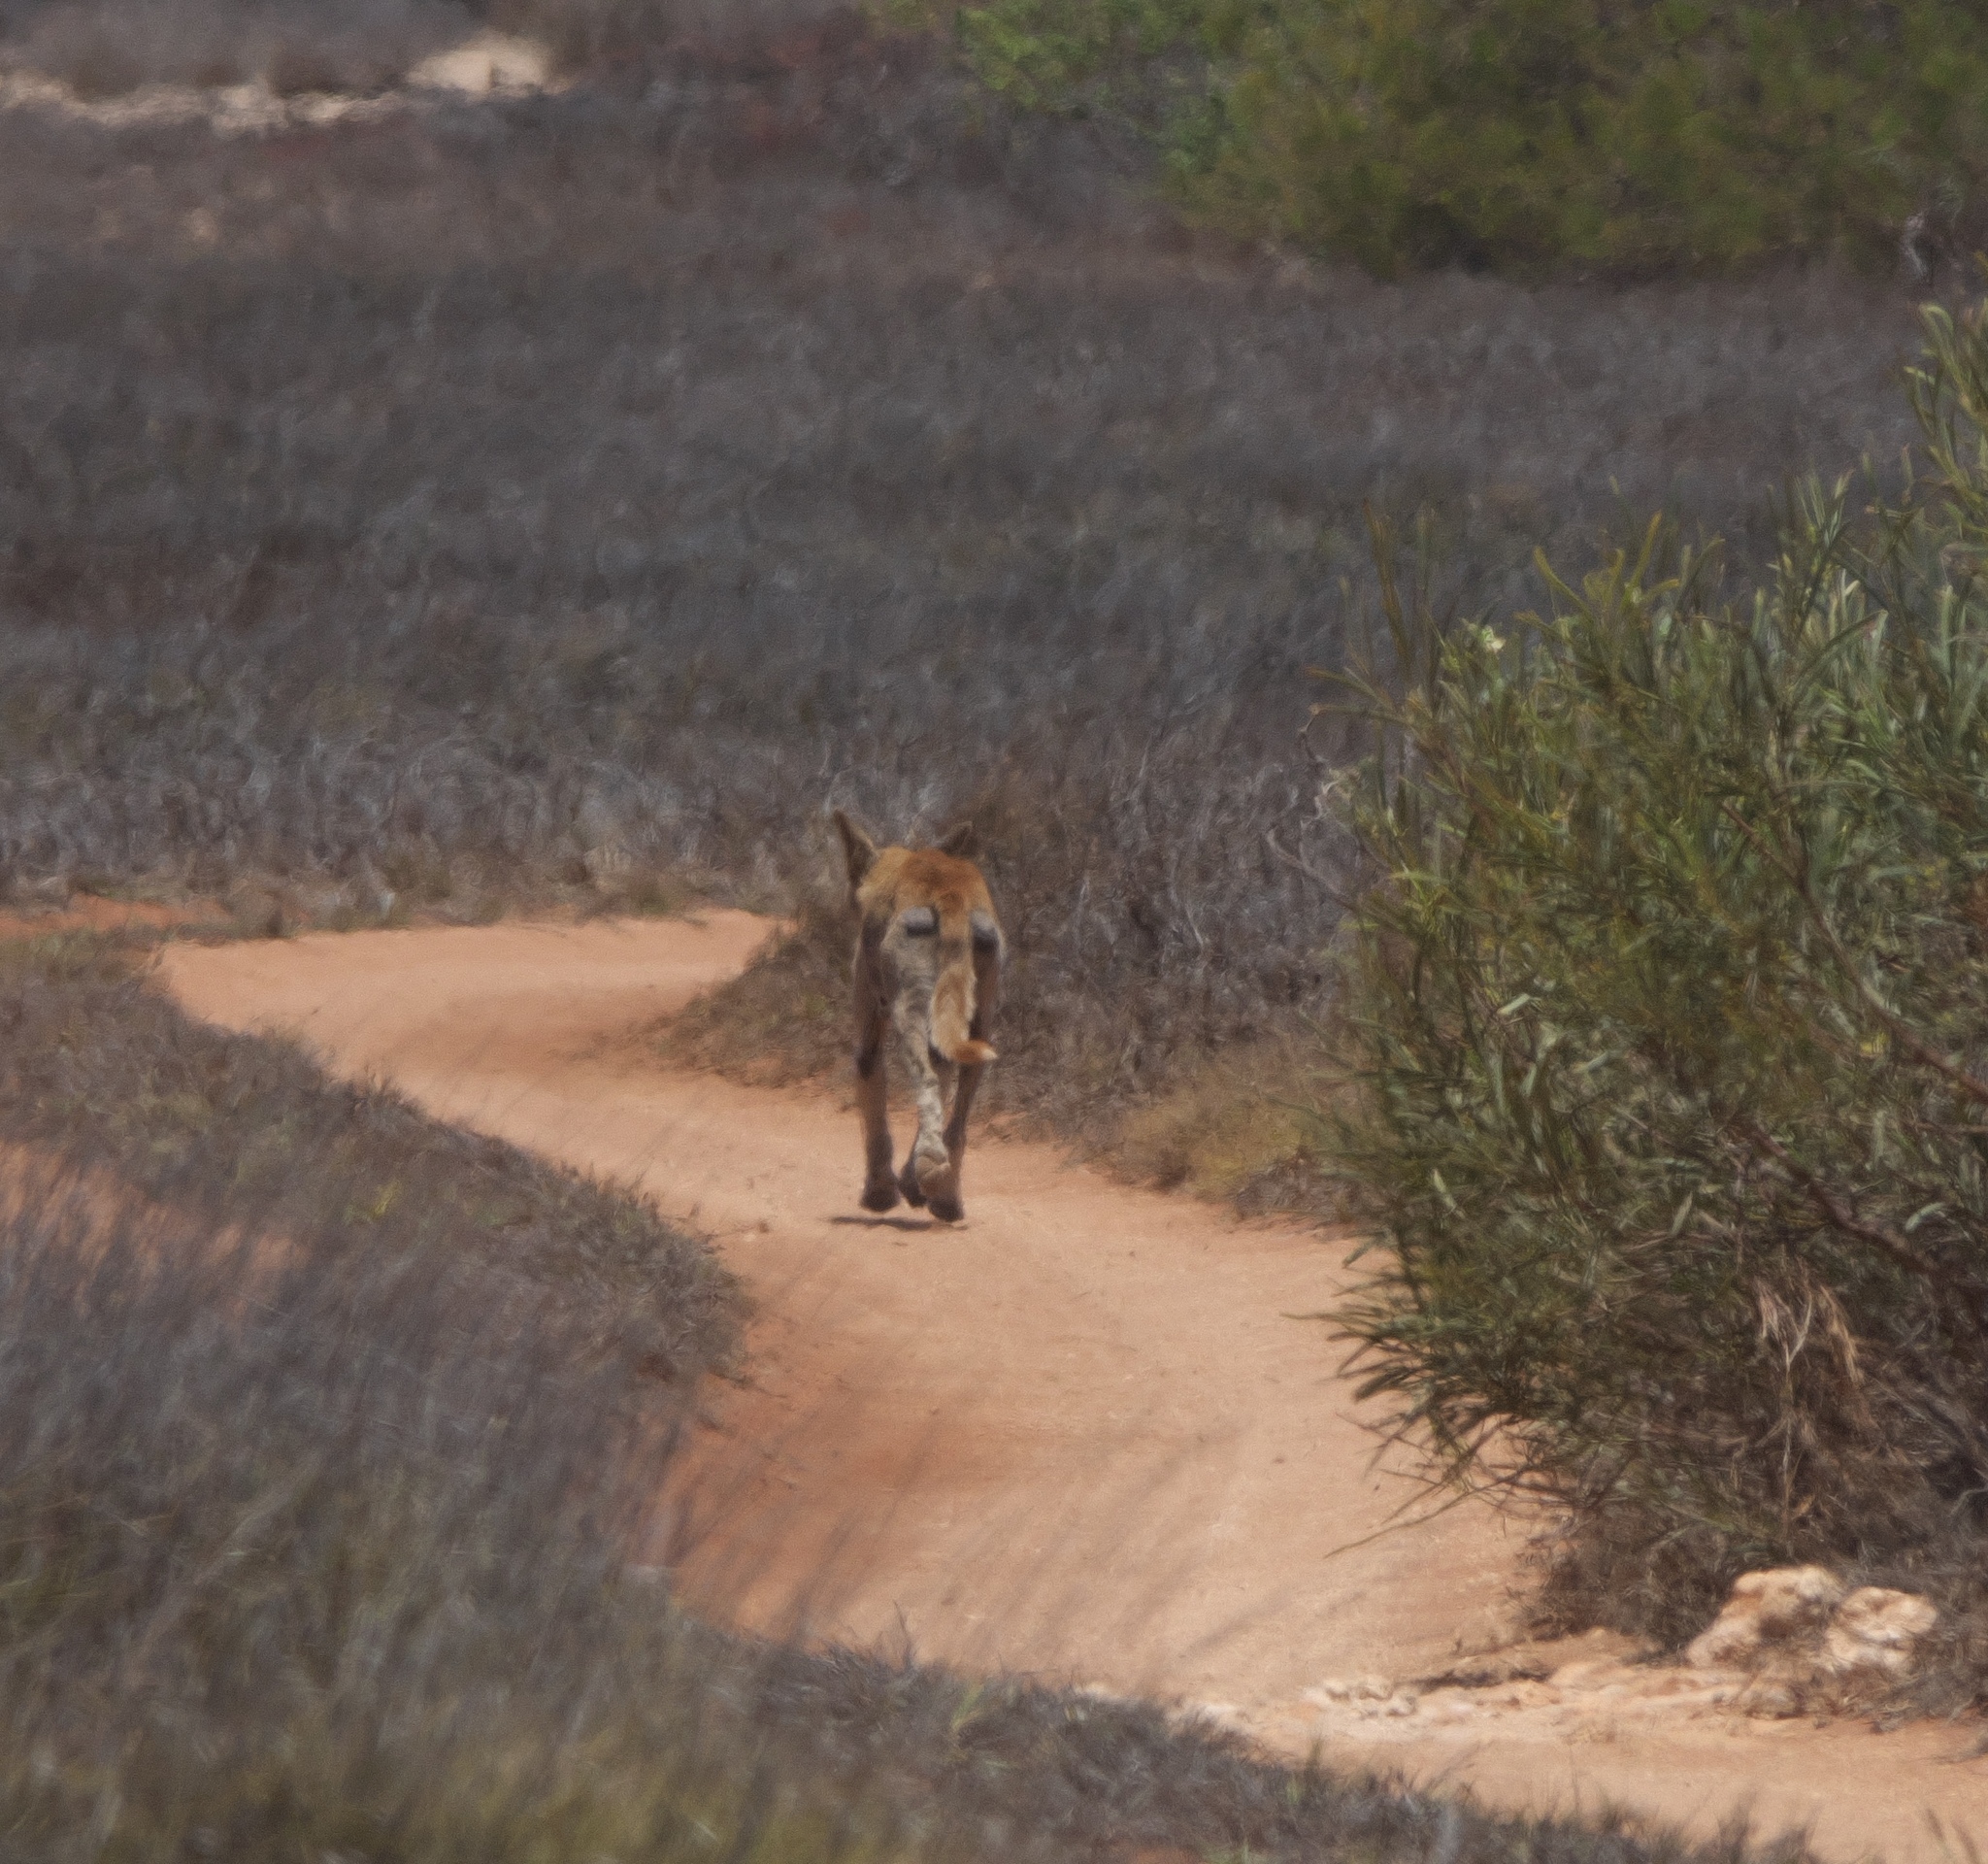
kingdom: Animalia
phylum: Chordata
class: Mammalia
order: Carnivora
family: Canidae
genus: Canis
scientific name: Canis lupus
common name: Gray wolf
